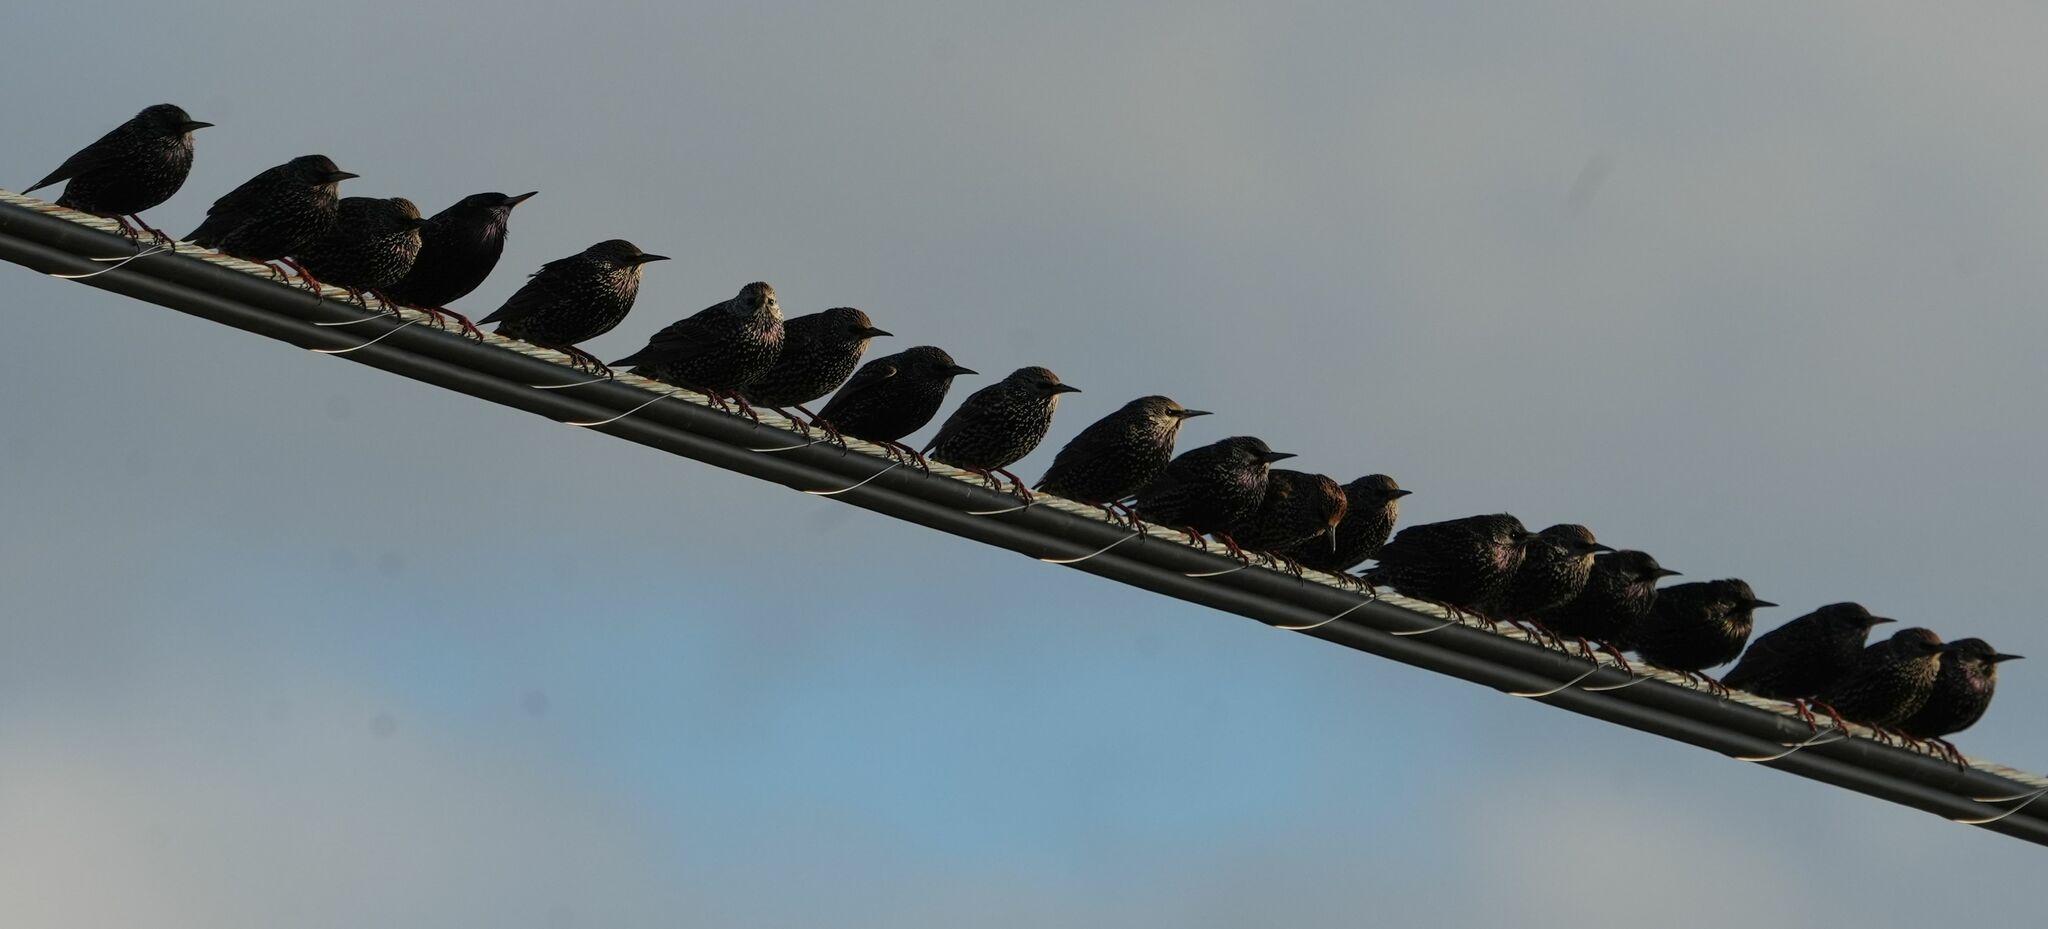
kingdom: Animalia
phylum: Chordata
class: Aves
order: Passeriformes
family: Sturnidae
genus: Sturnus
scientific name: Sturnus vulgaris
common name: Common starling
